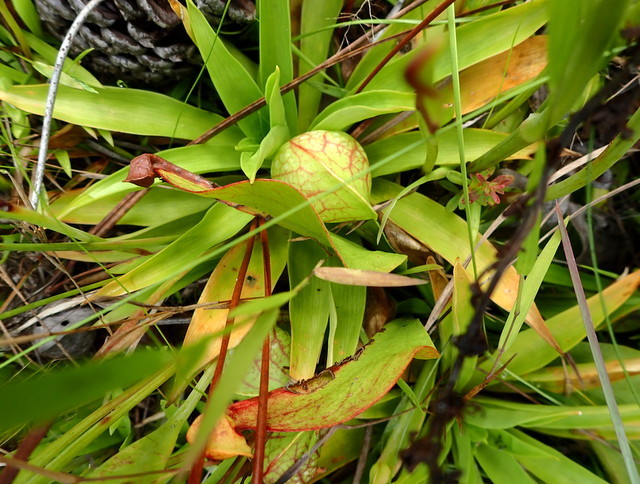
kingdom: Plantae
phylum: Tracheophyta
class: Magnoliopsida
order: Ericales
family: Sarraceniaceae
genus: Sarracenia
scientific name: Sarracenia psittacina
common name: Parrot pitcherplant
